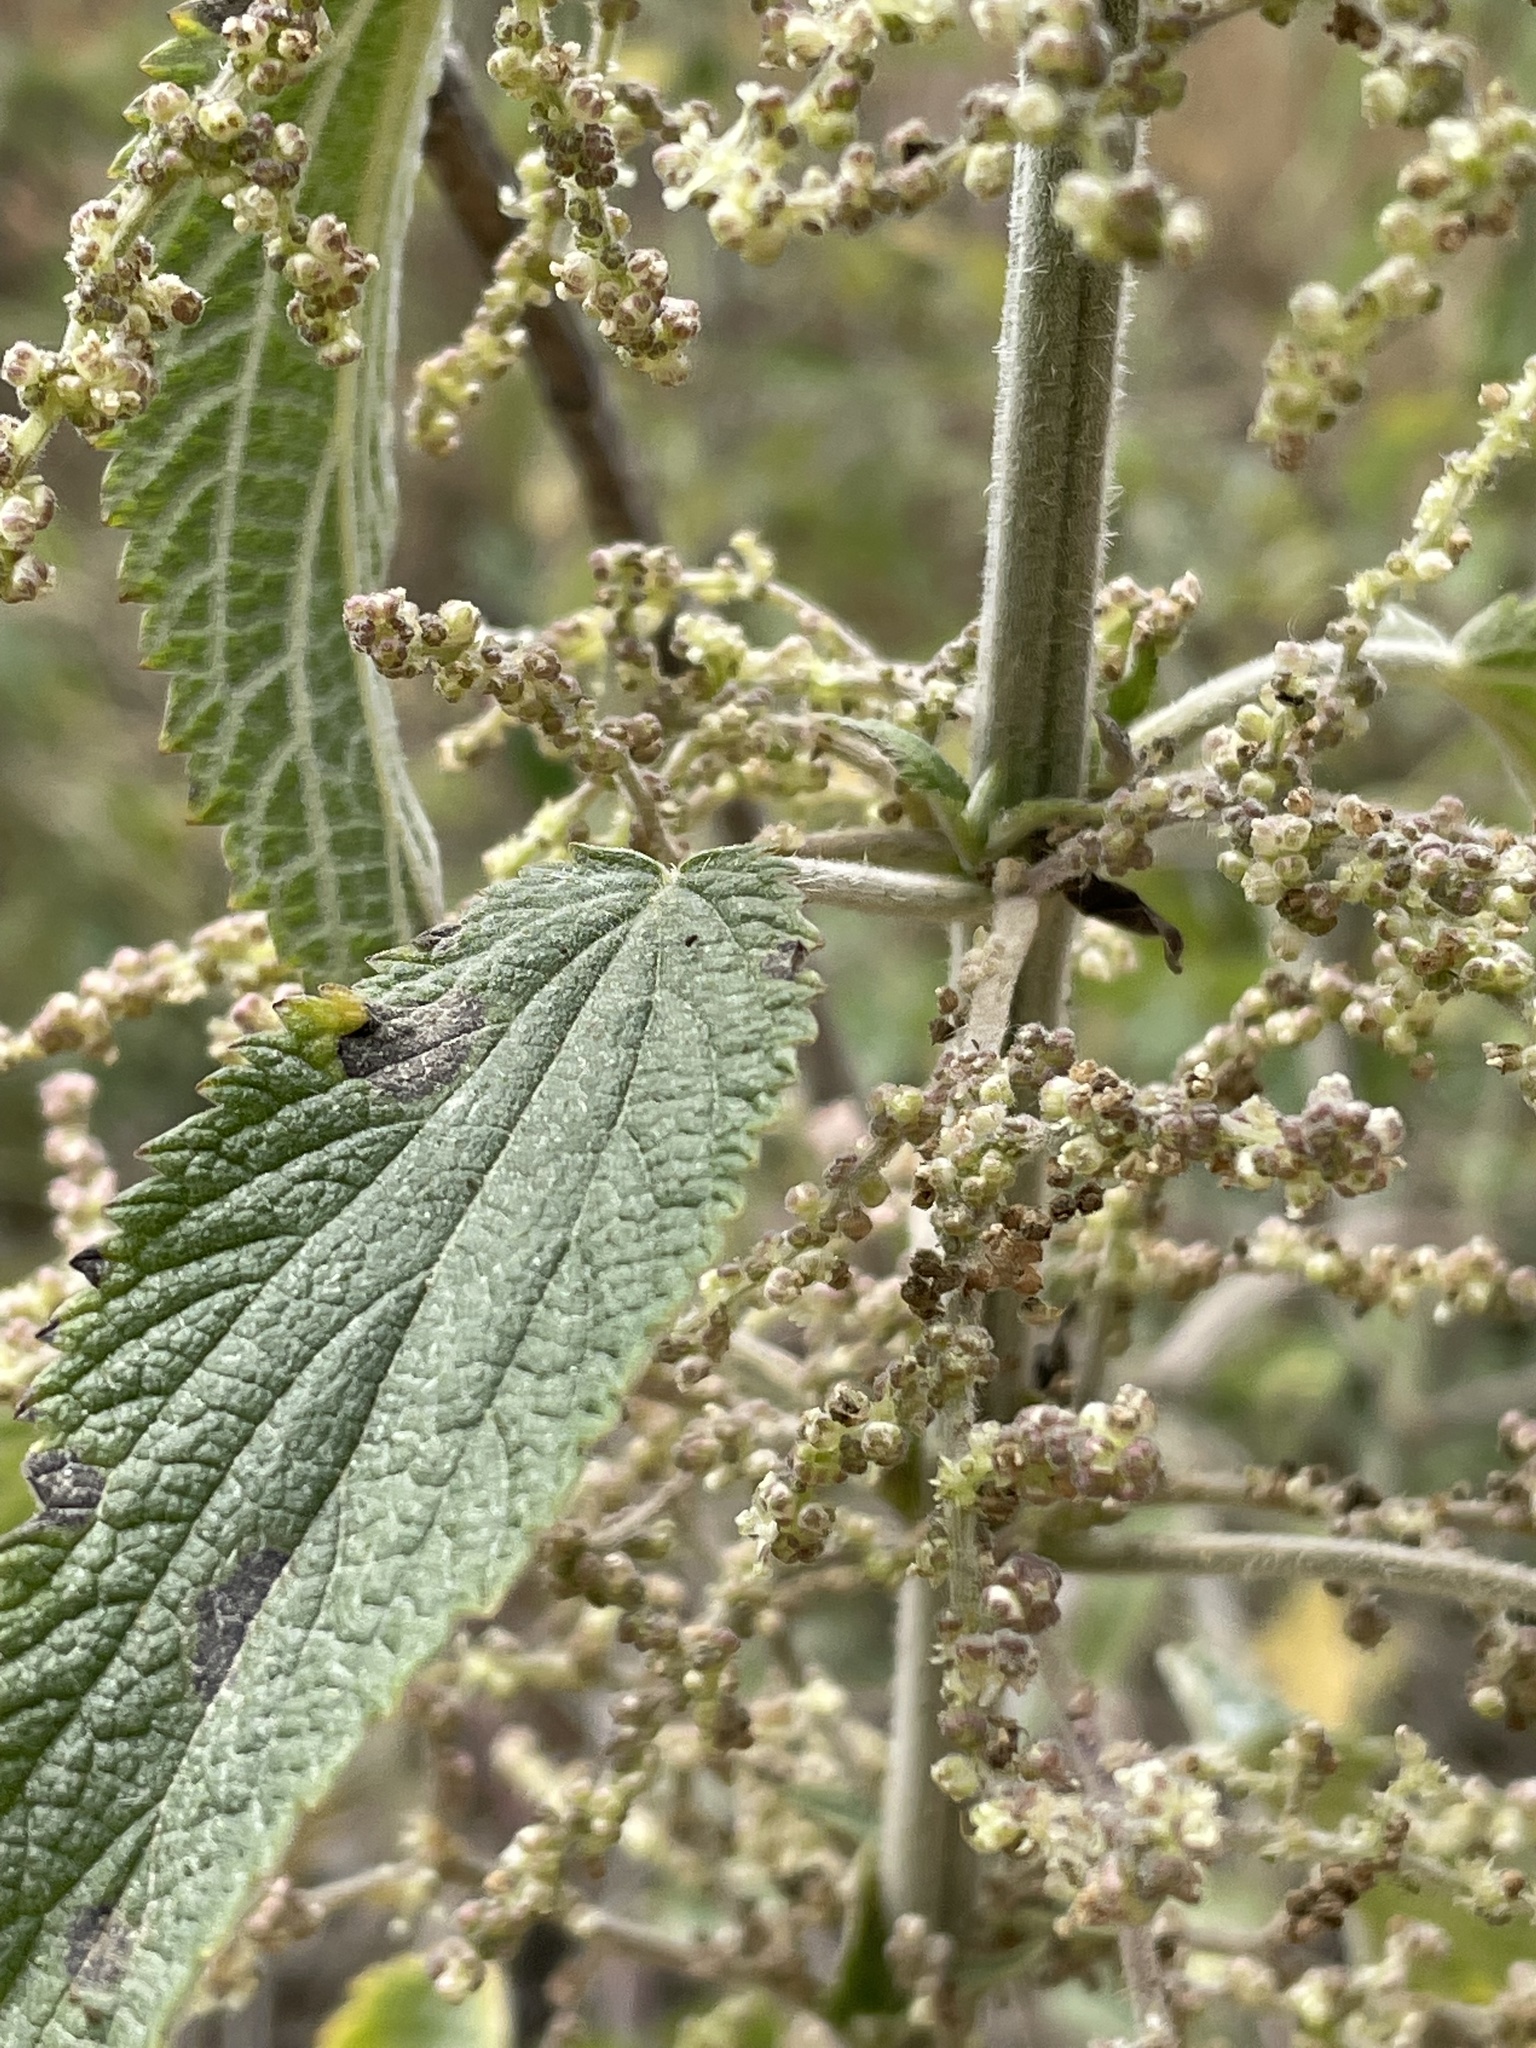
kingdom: Plantae
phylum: Tracheophyta
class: Magnoliopsida
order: Rosales
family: Urticaceae
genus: Urtica
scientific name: Urtica dioica
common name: Common nettle
